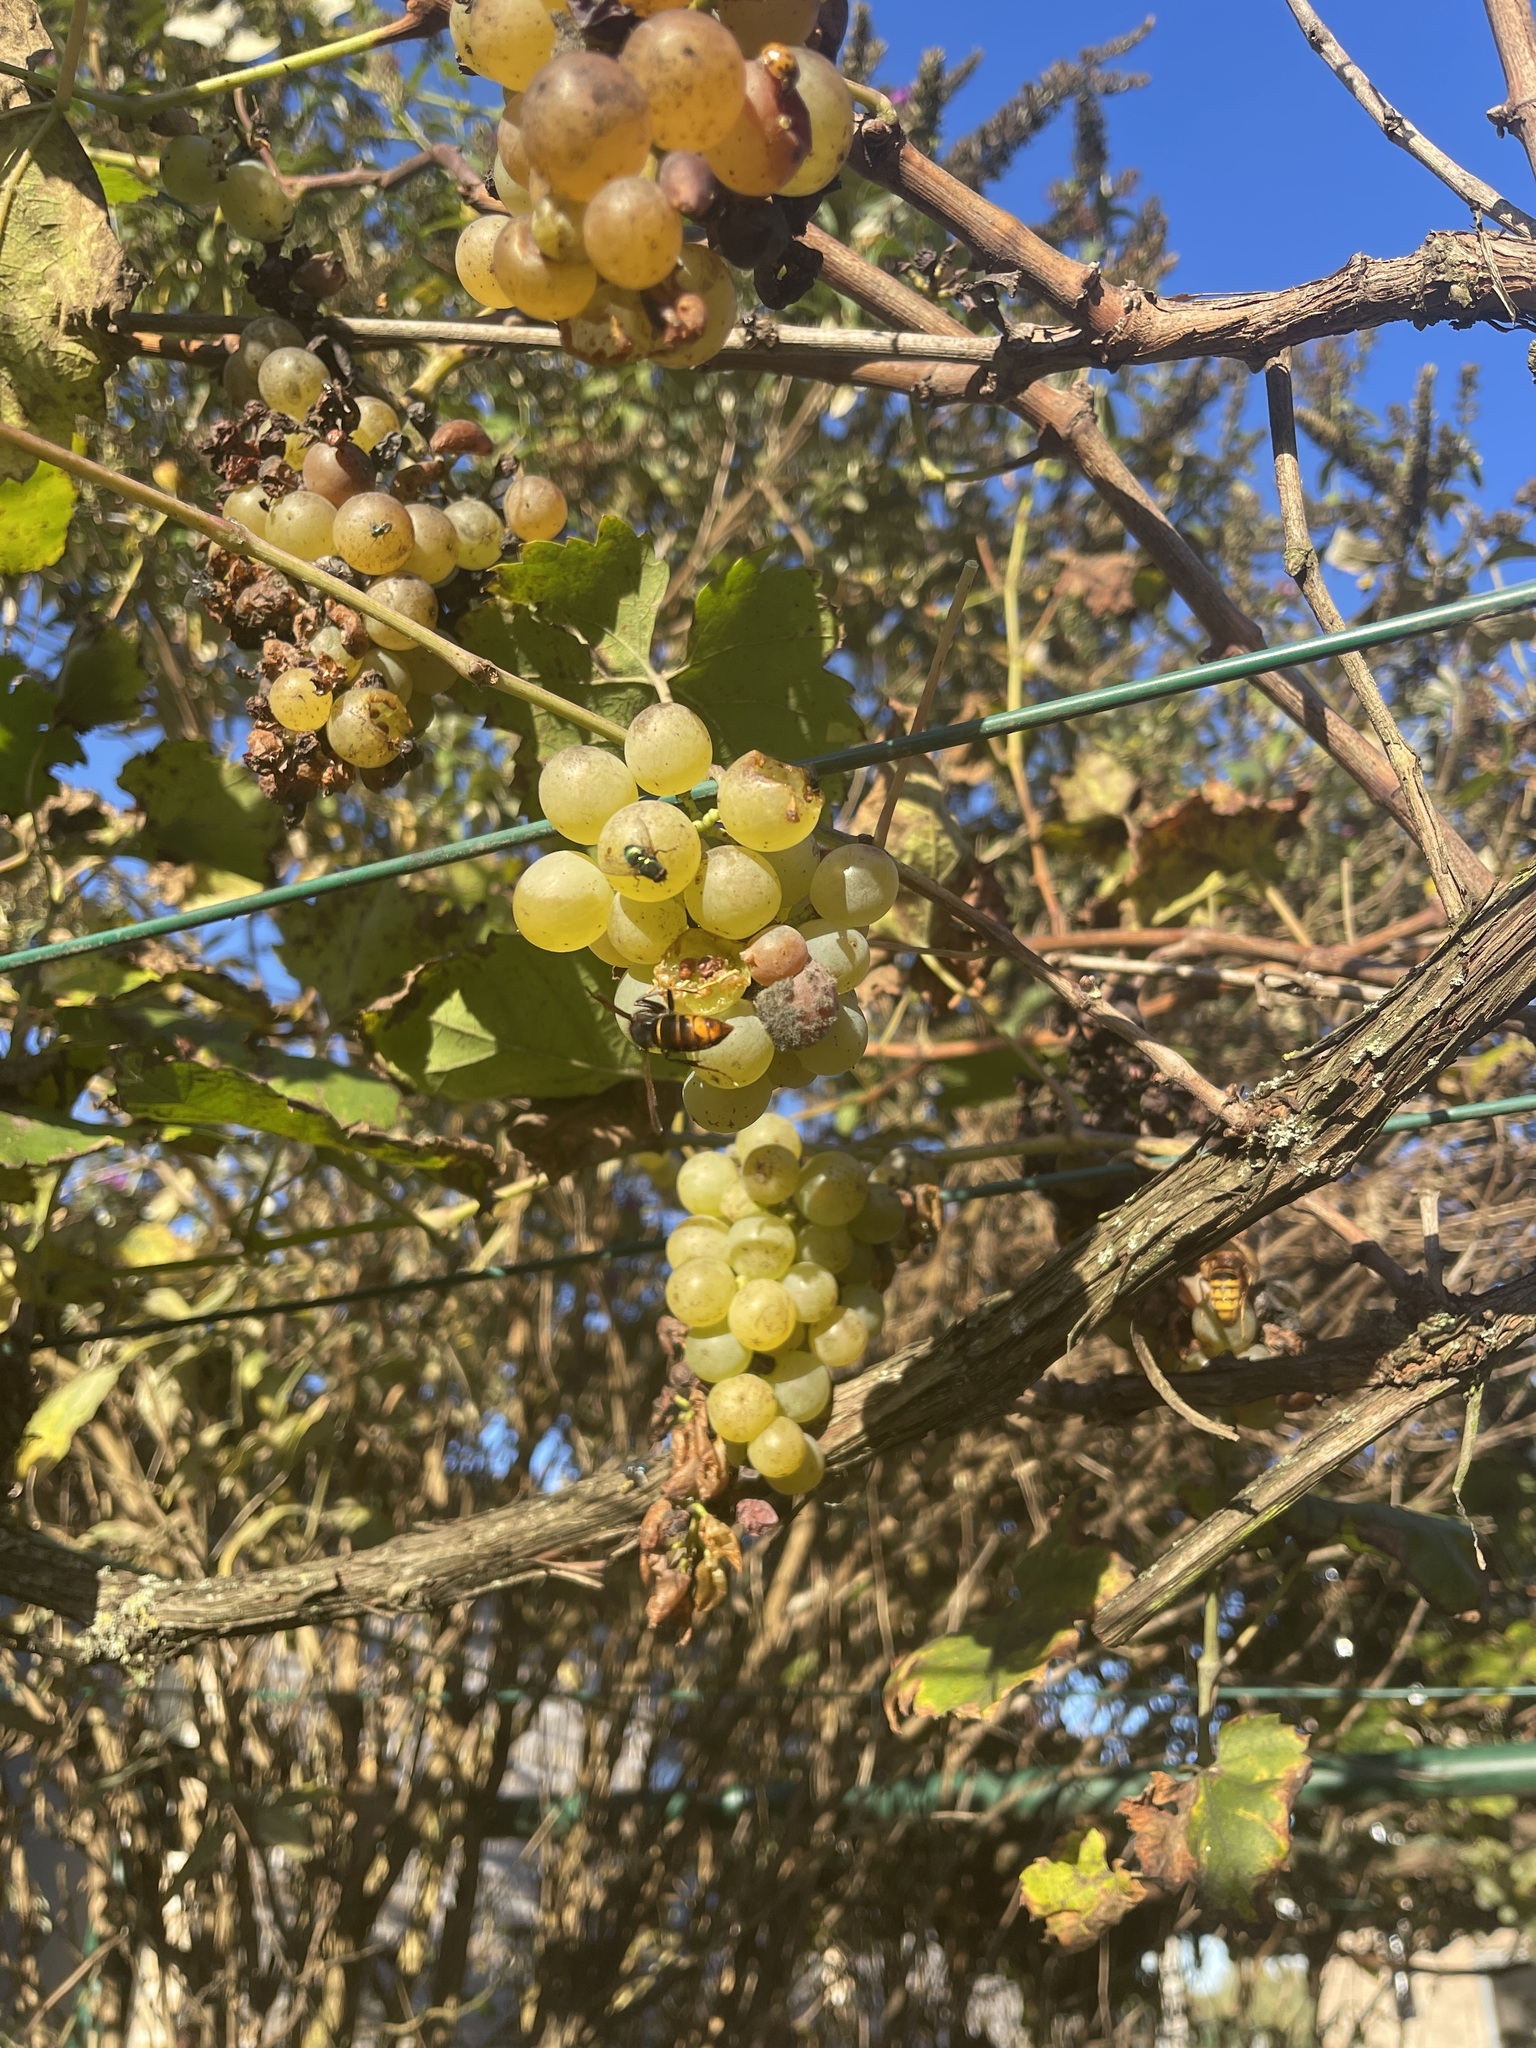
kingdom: Animalia
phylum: Arthropoda
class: Insecta
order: Hymenoptera
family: Vespidae
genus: Vespa
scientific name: Vespa velutina
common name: Asian hornet
